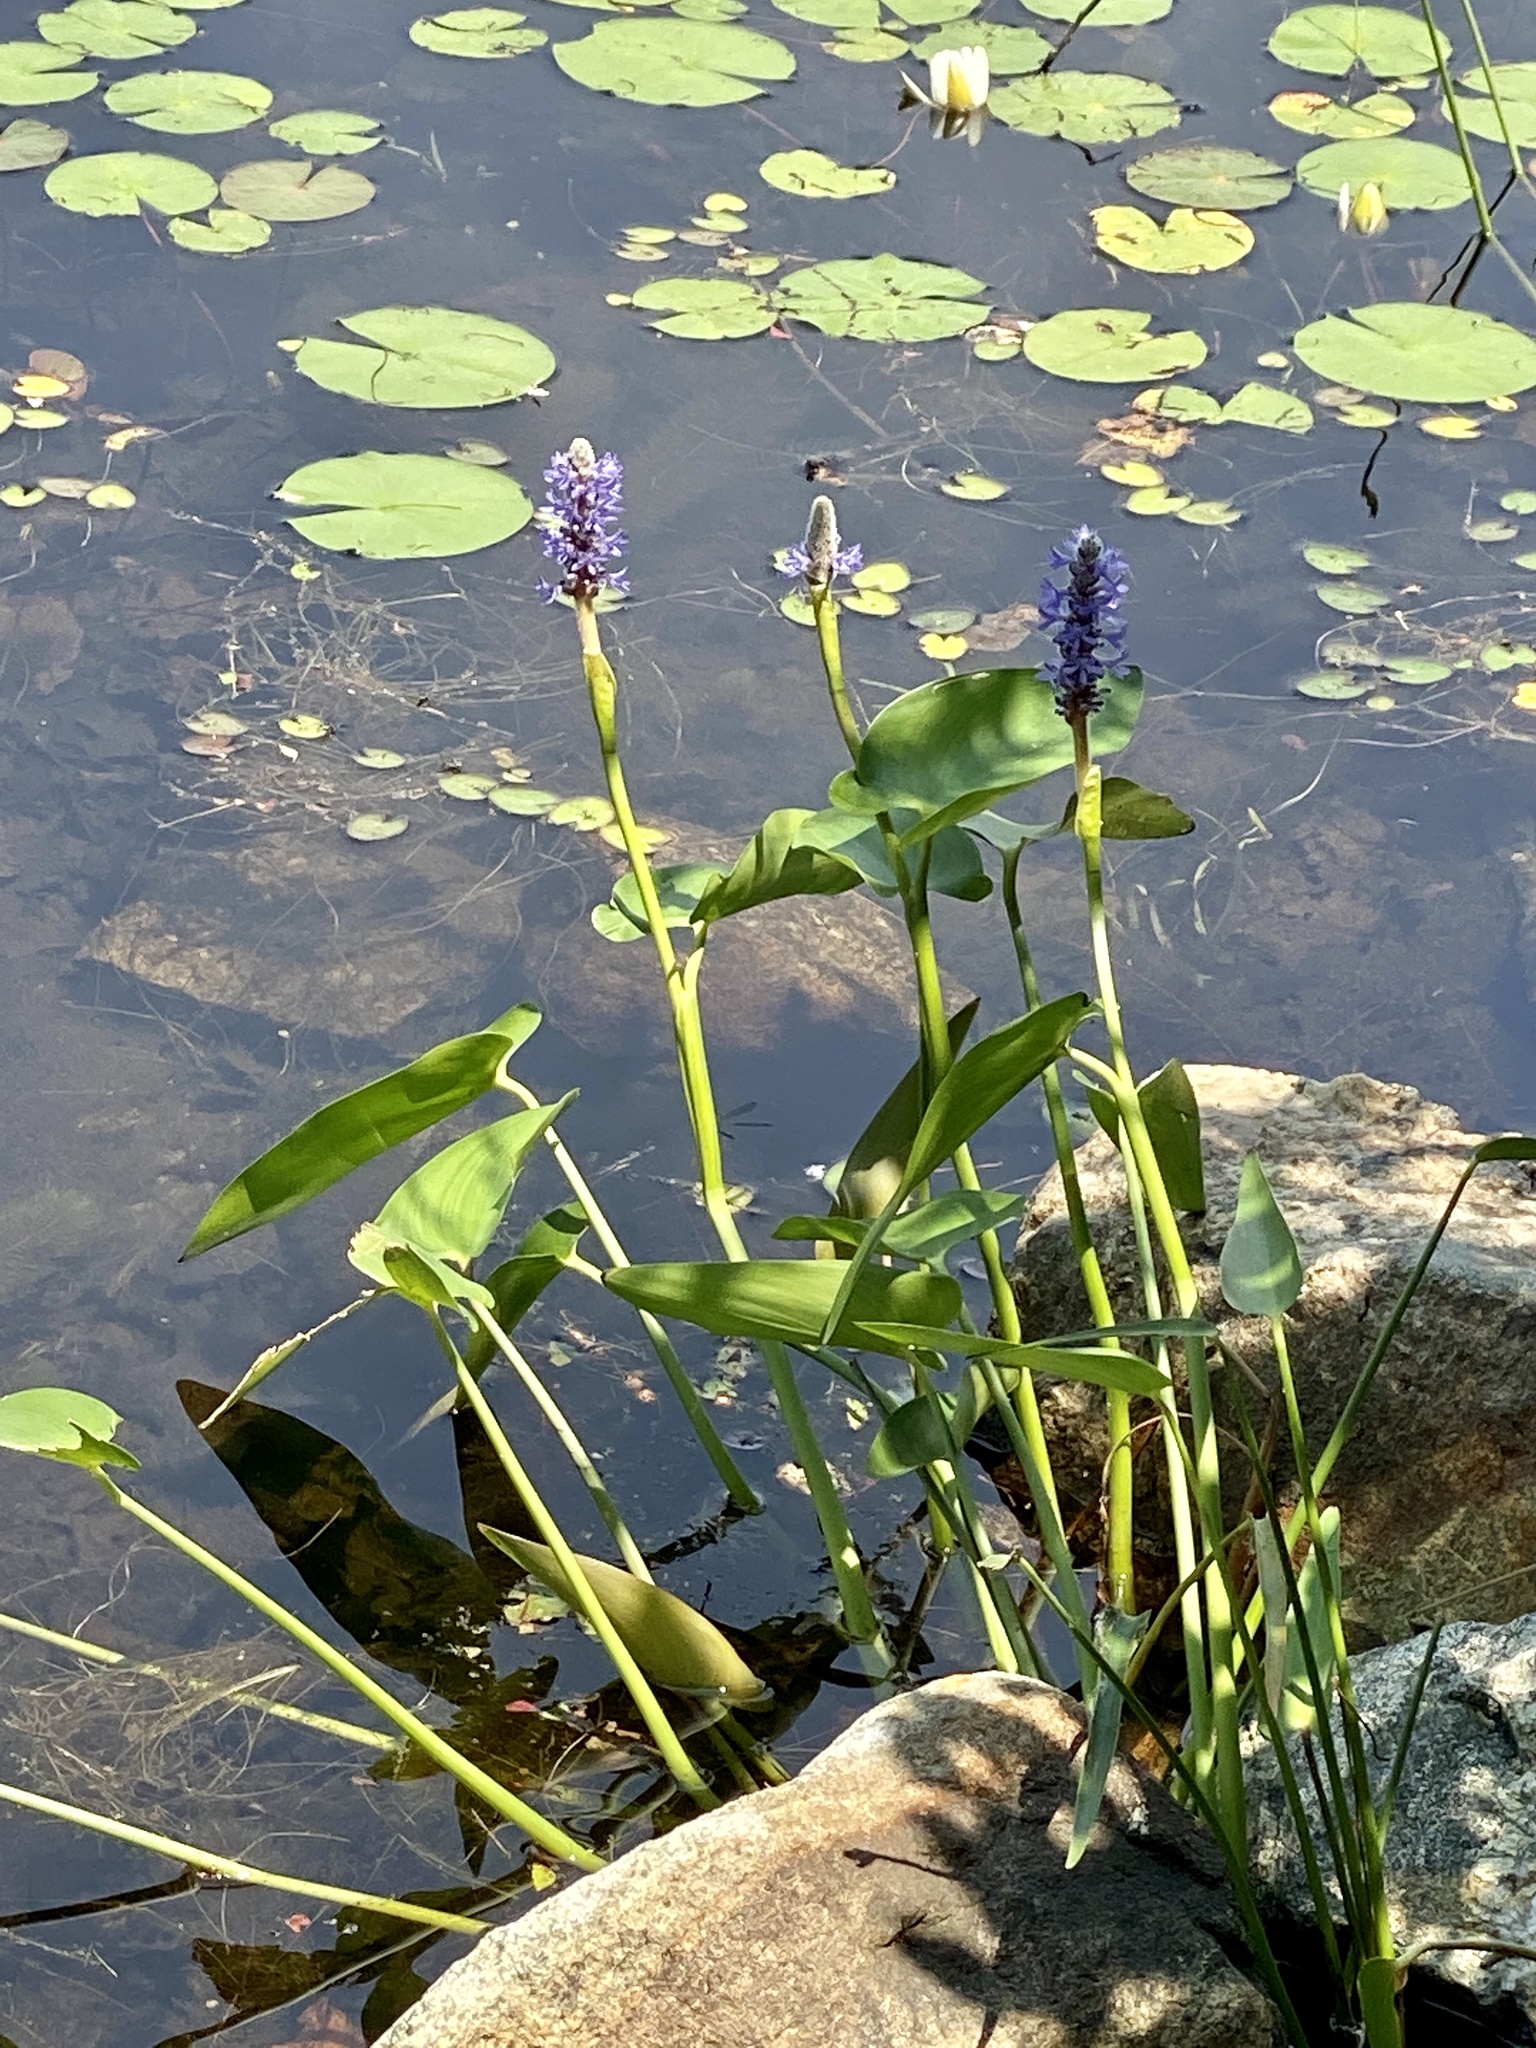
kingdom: Plantae
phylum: Tracheophyta
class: Liliopsida
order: Commelinales
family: Pontederiaceae
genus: Pontederia
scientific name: Pontederia cordata
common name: Pickerelweed
